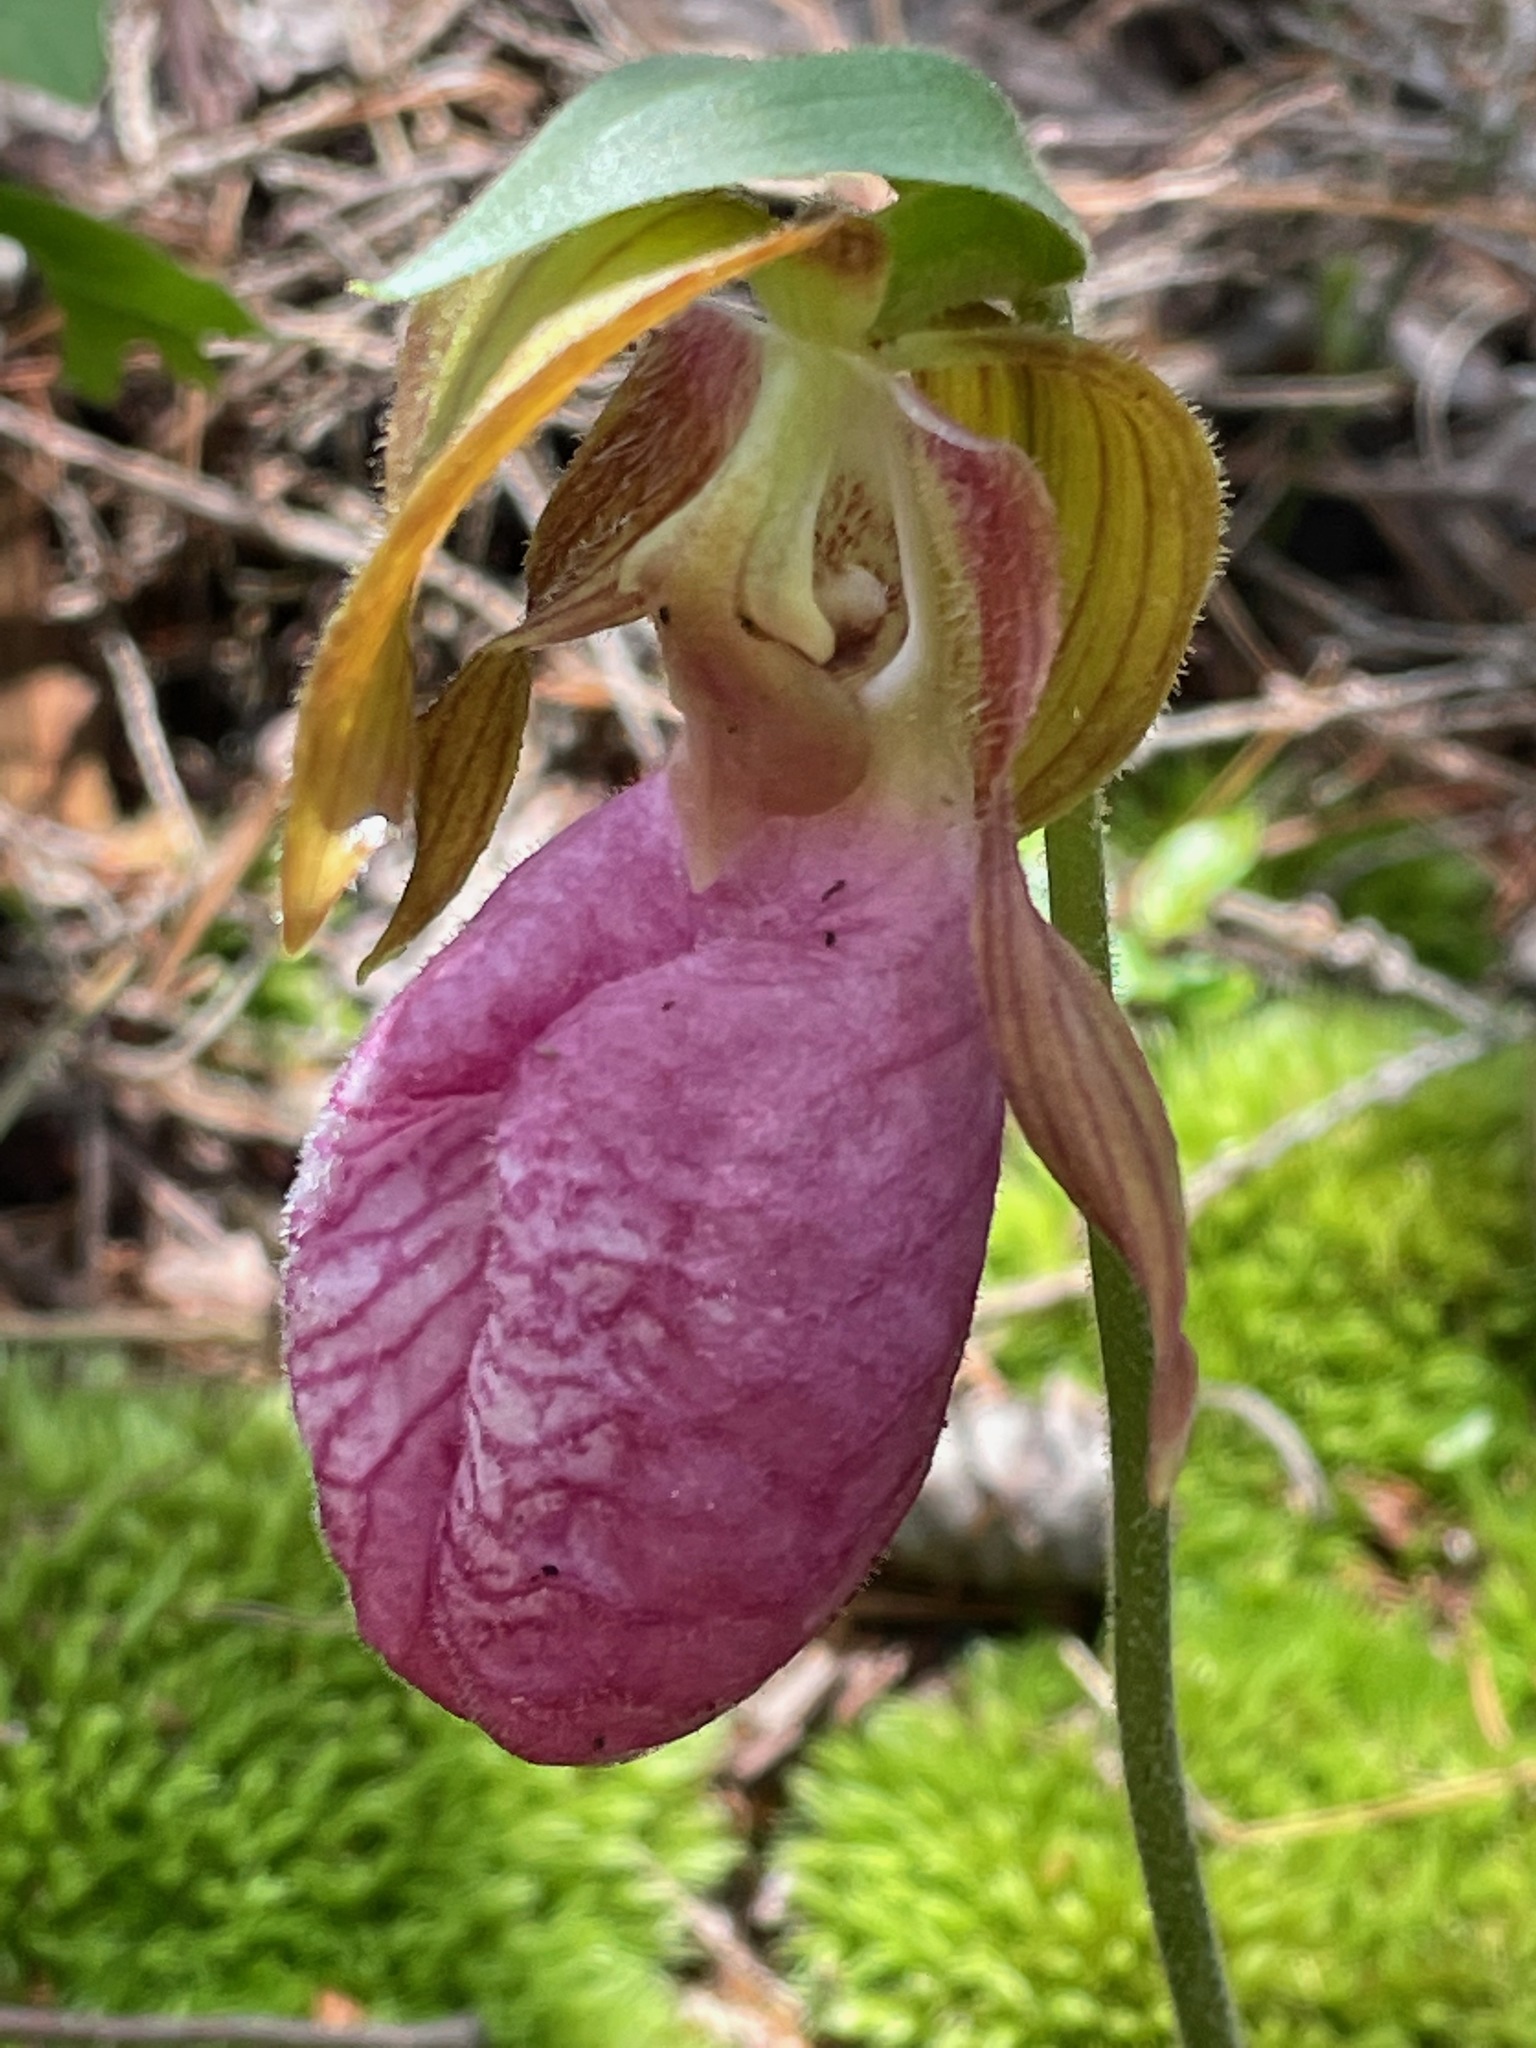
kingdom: Plantae
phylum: Tracheophyta
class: Liliopsida
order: Asparagales
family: Orchidaceae
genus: Cypripedium
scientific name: Cypripedium acaule
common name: Pink lady's-slipper
